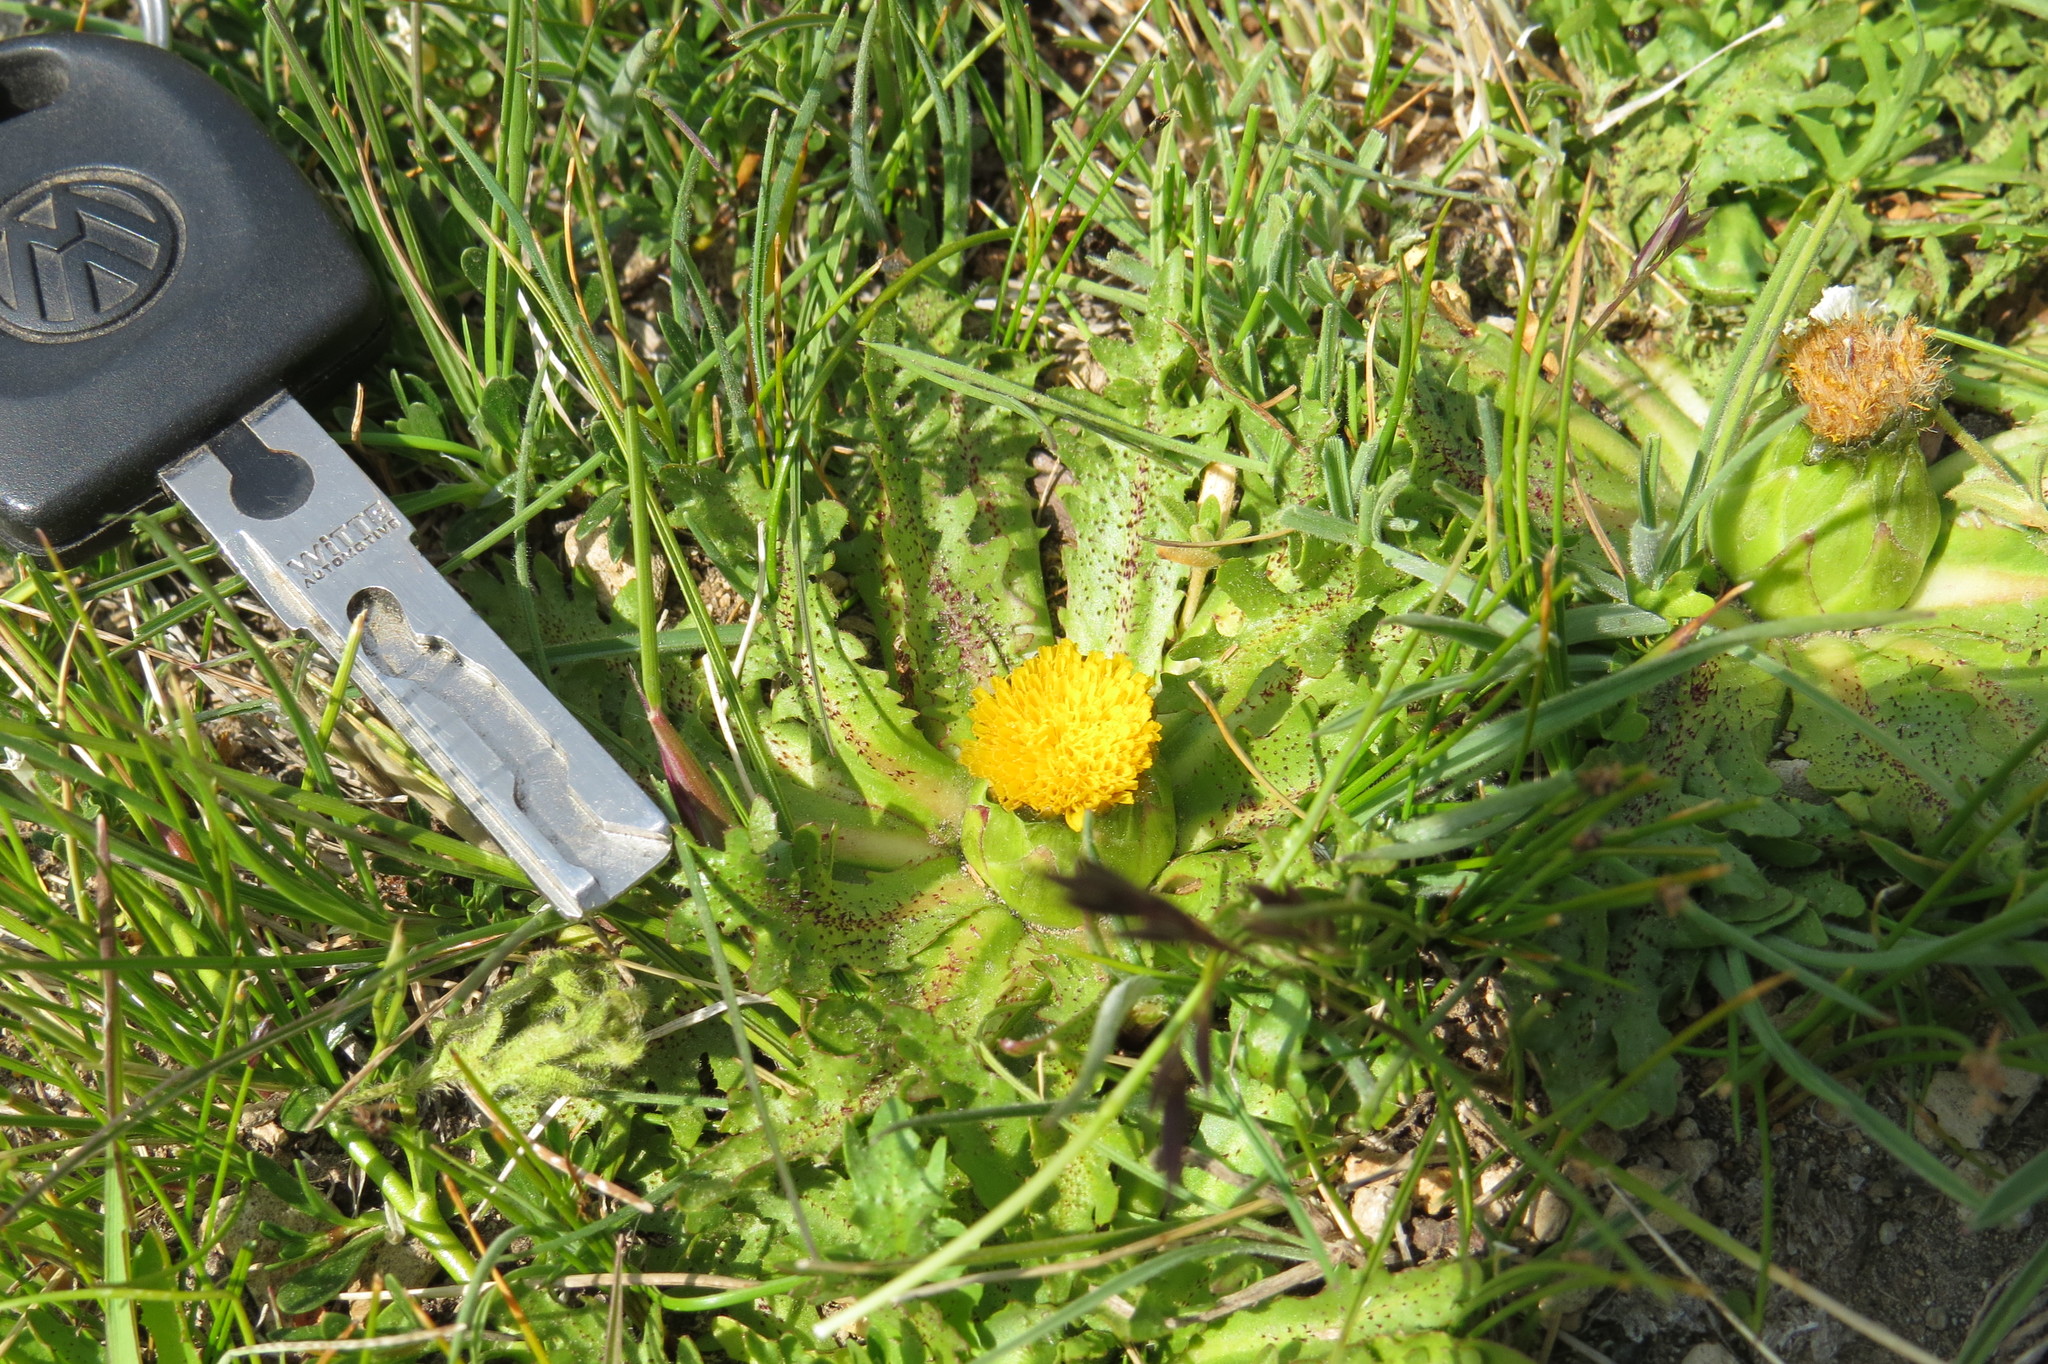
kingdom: Plantae
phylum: Tracheophyta
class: Magnoliopsida
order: Asterales
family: Asteraceae
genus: Hypochaeris
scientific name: Hypochaeris acaulis
